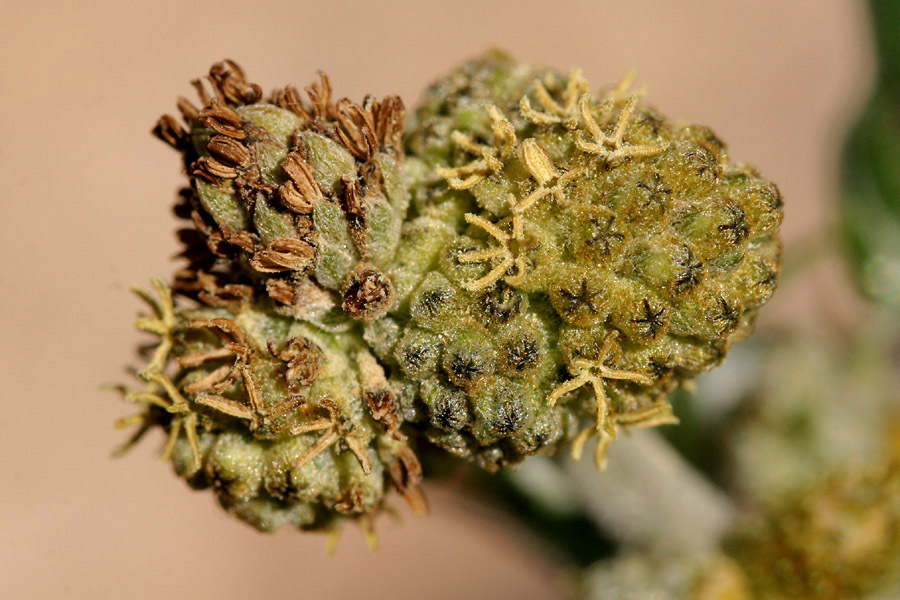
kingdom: Plantae
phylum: Tracheophyta
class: Magnoliopsida
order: Asterales
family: Asteraceae
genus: Xanthium
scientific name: Xanthium spinosum
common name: Spiny cocklebur
